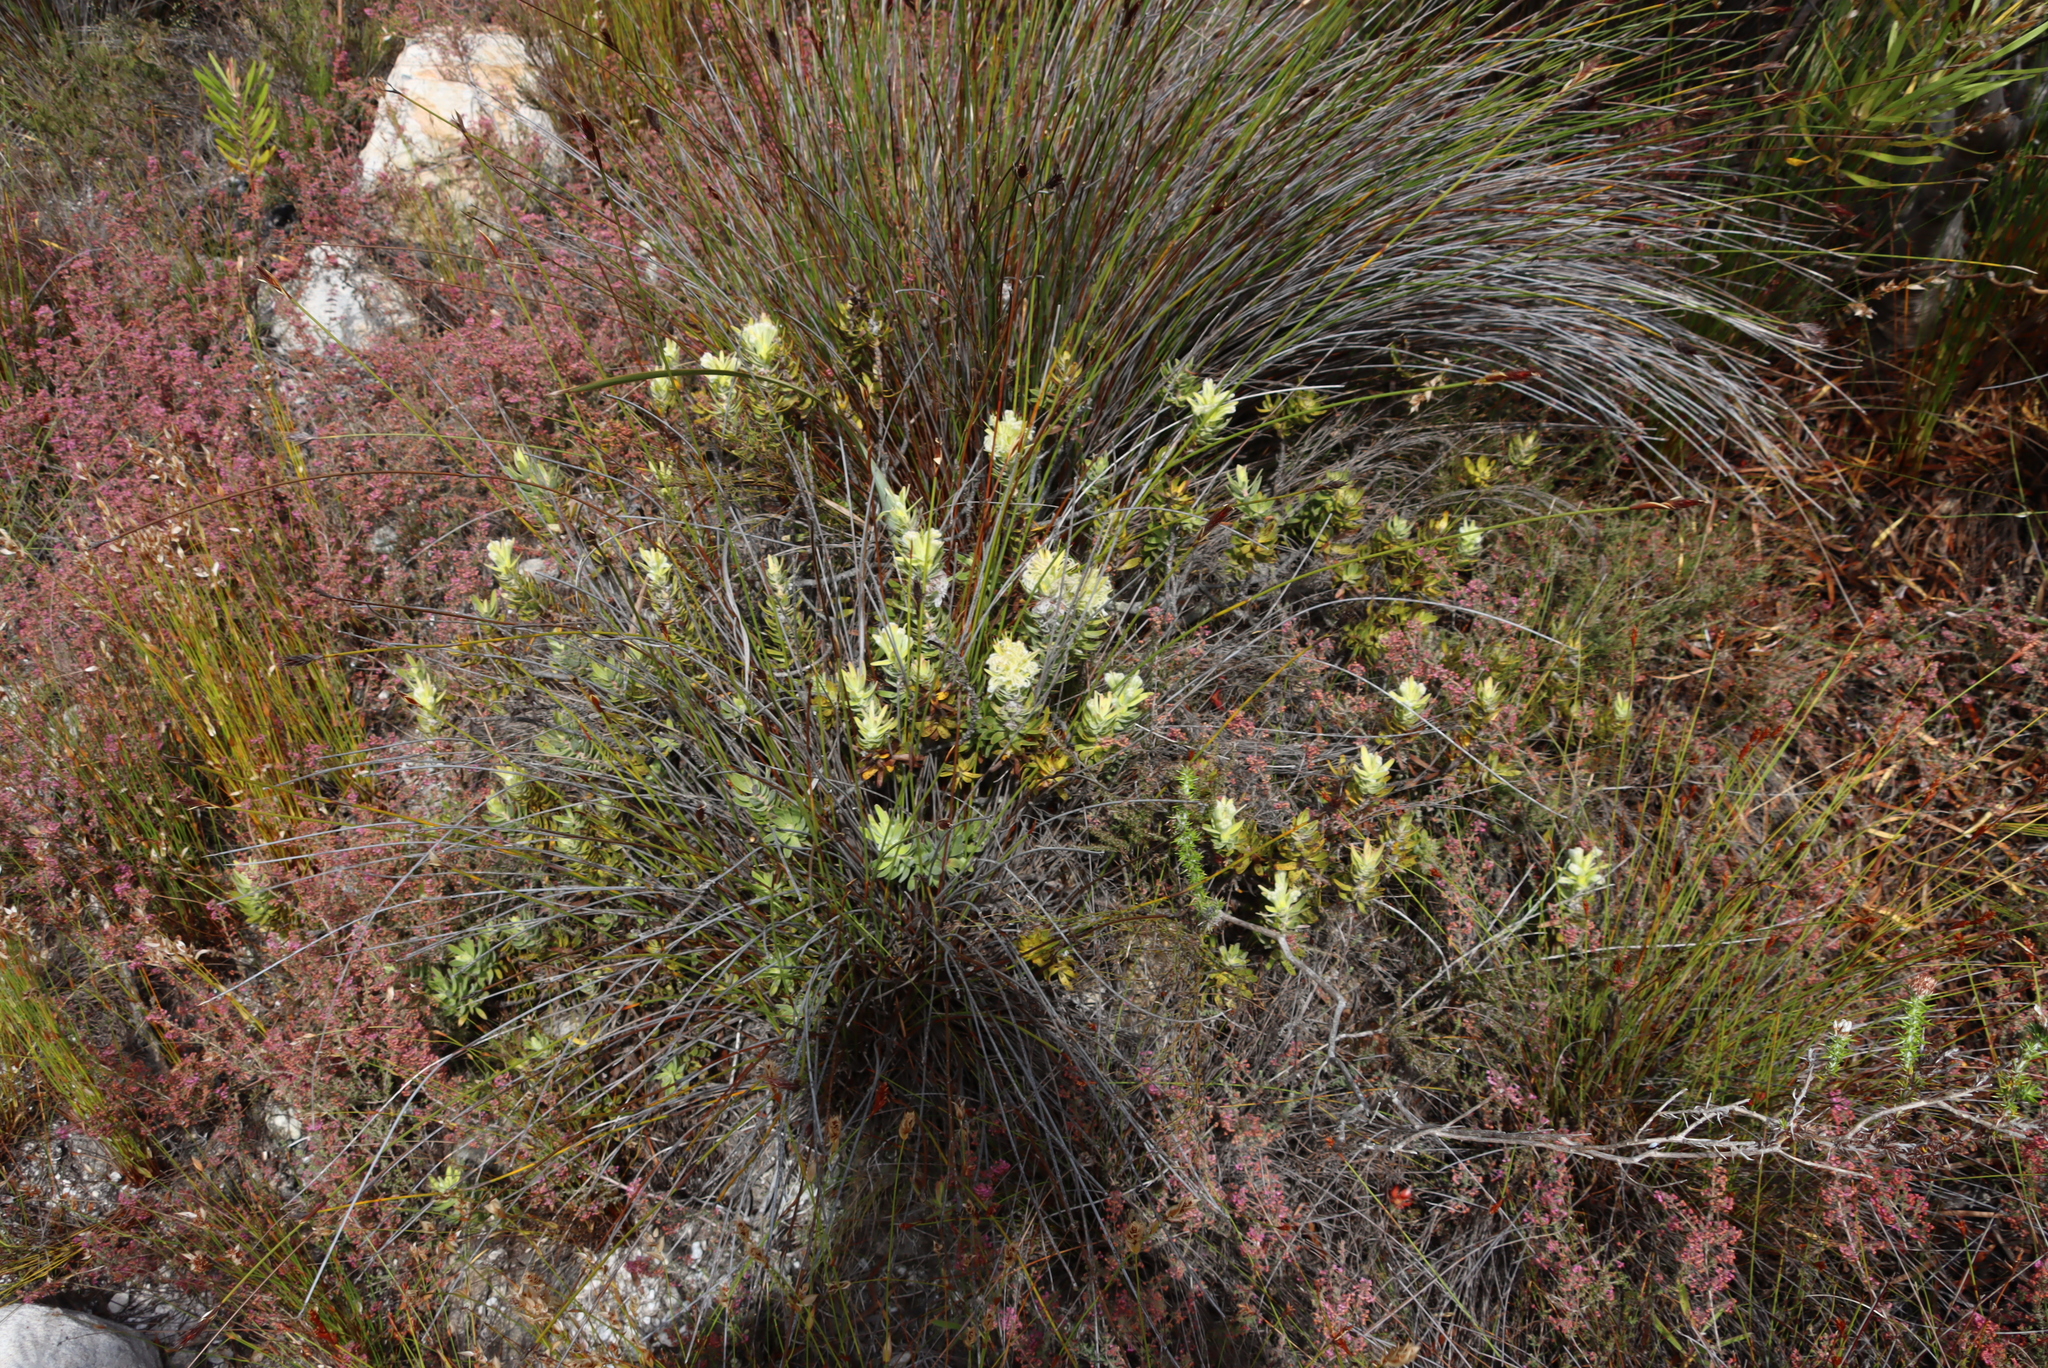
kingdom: Plantae
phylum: Tracheophyta
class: Magnoliopsida
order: Proteales
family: Proteaceae
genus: Mimetes
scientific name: Mimetes cucullatus
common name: Common pagoda
